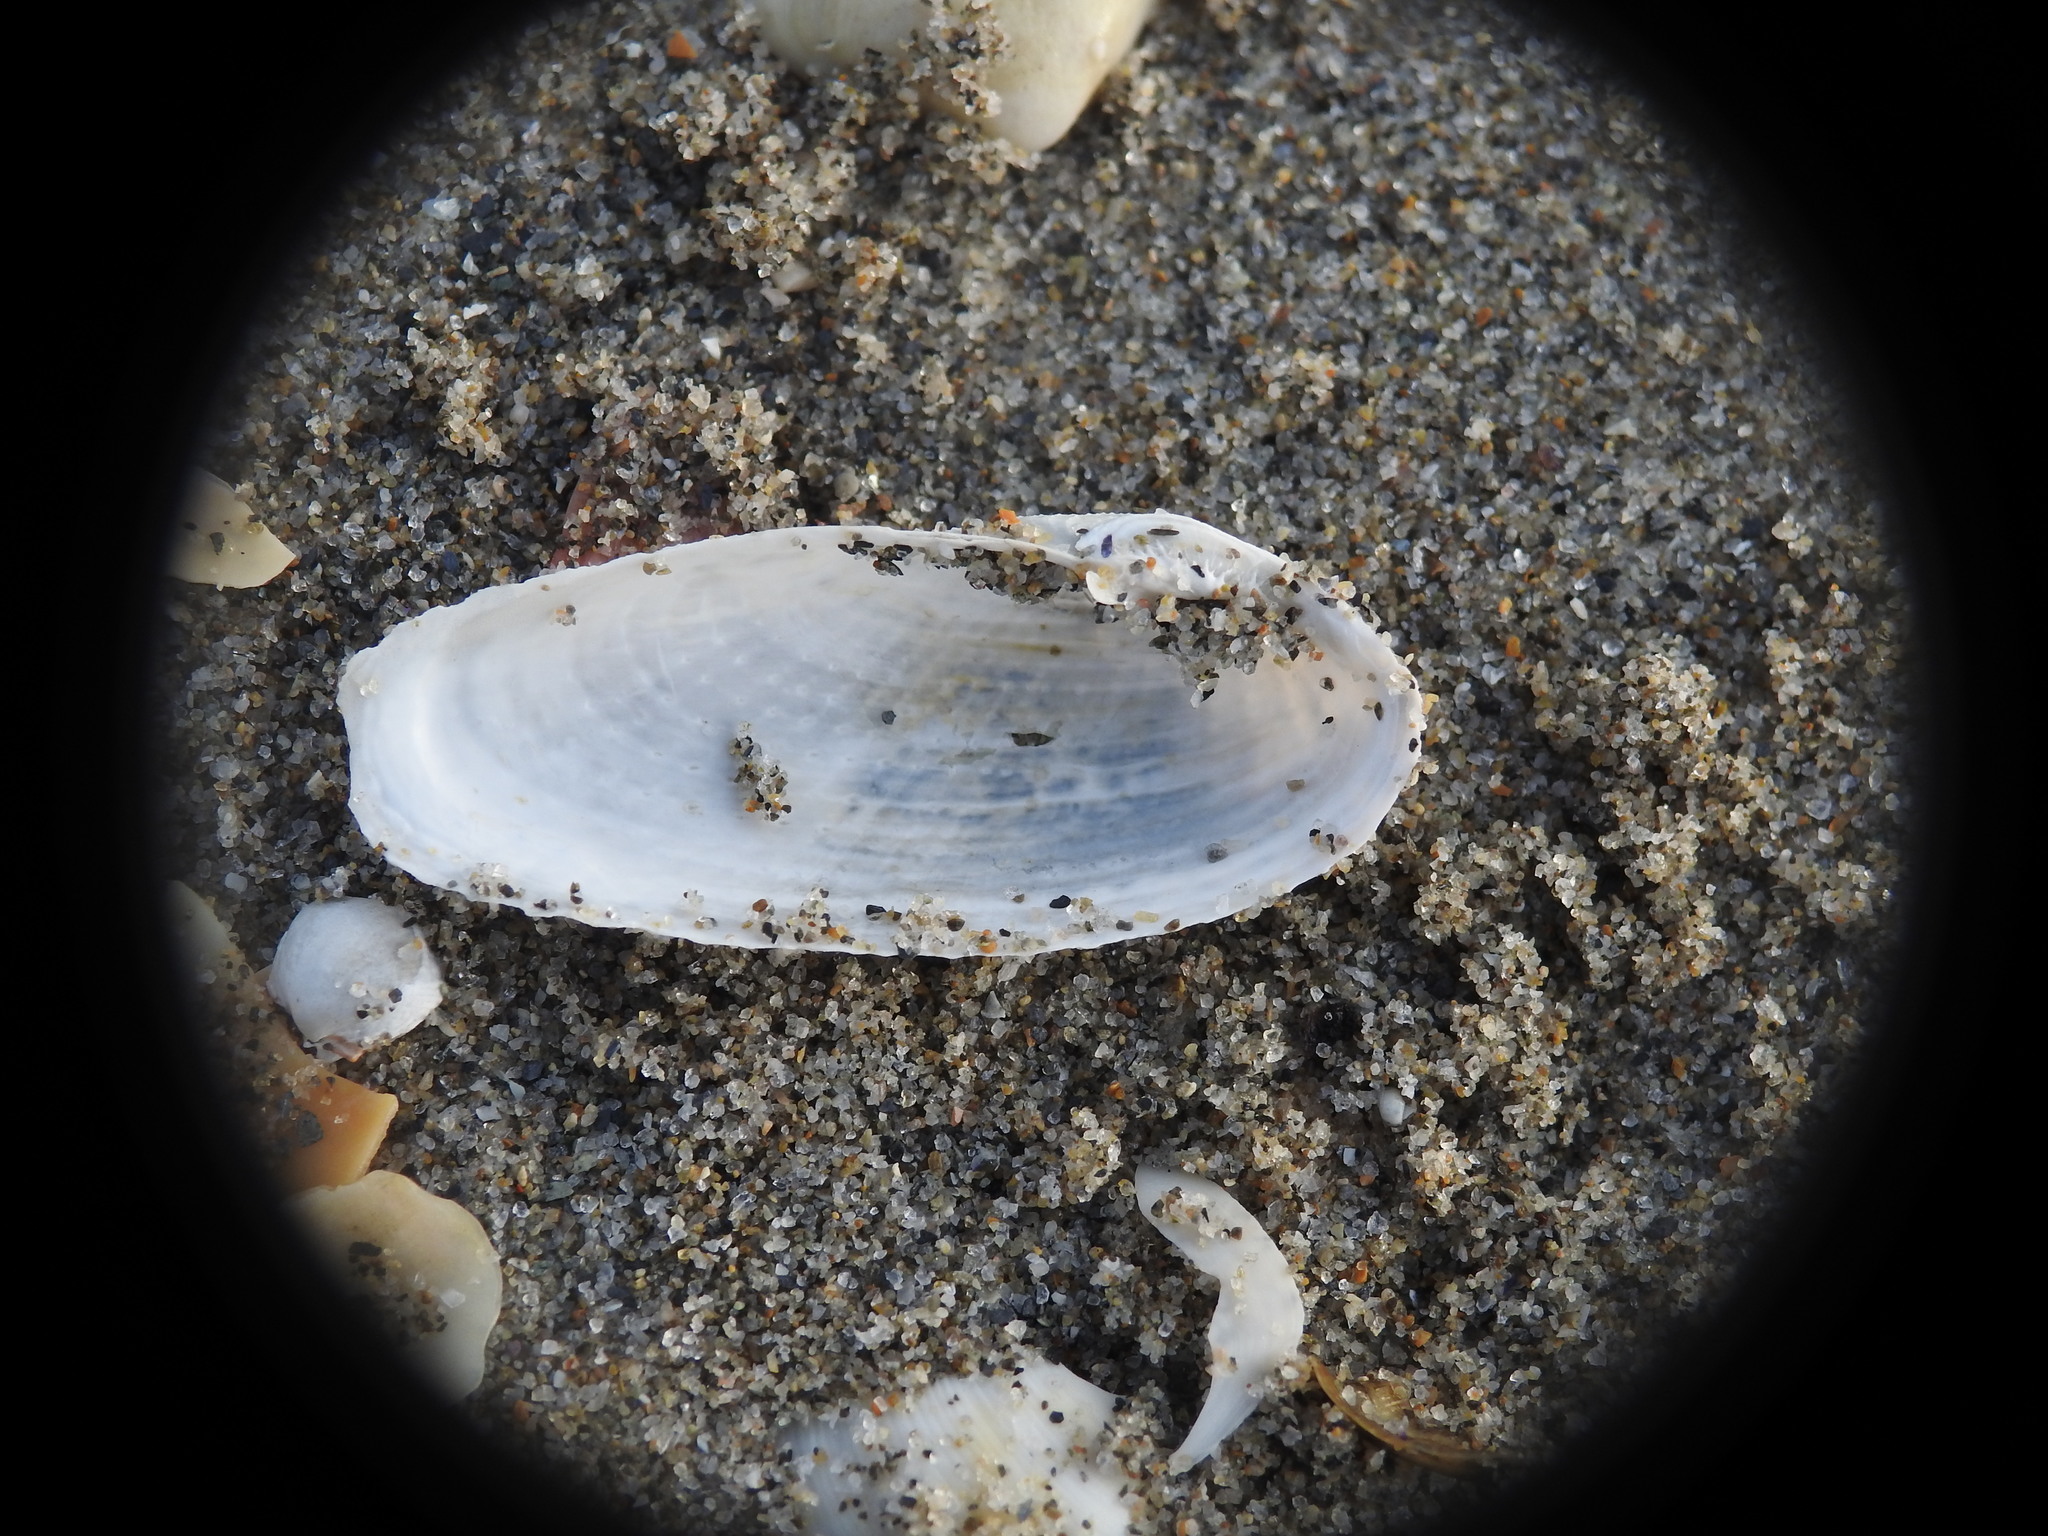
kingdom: Animalia
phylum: Mollusca
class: Bivalvia
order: Myida
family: Pholadidae
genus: Barnea
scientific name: Barnea candida
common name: White piddock
